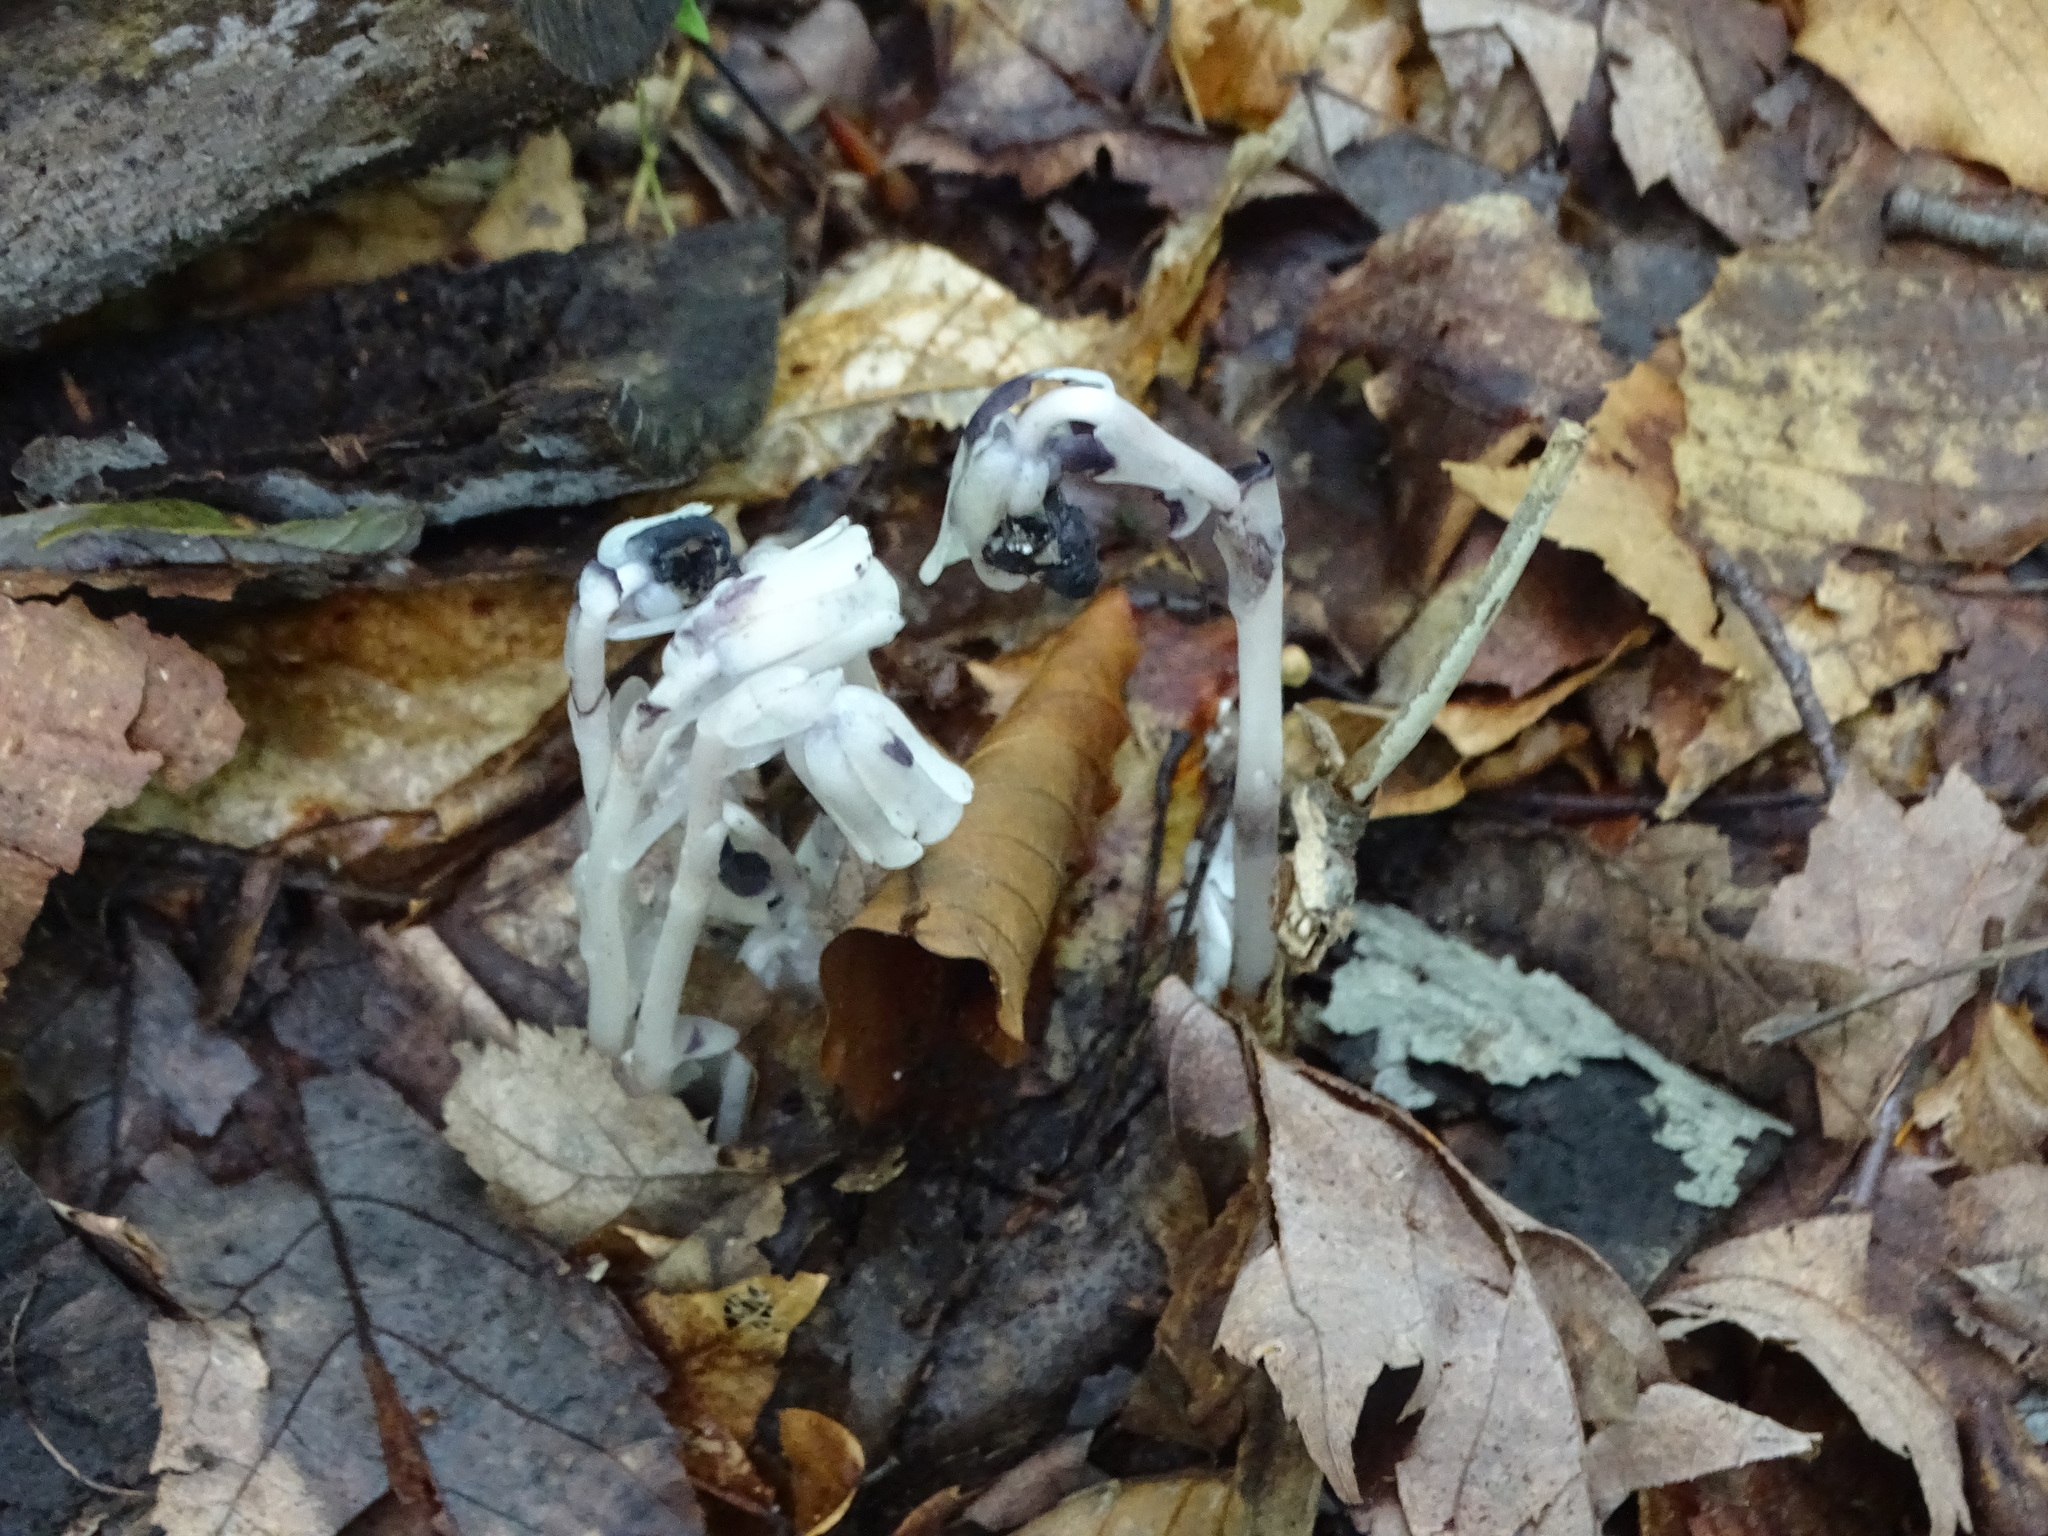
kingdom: Plantae
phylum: Tracheophyta
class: Magnoliopsida
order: Ericales
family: Ericaceae
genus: Monotropa
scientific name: Monotropa uniflora
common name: Convulsion root
